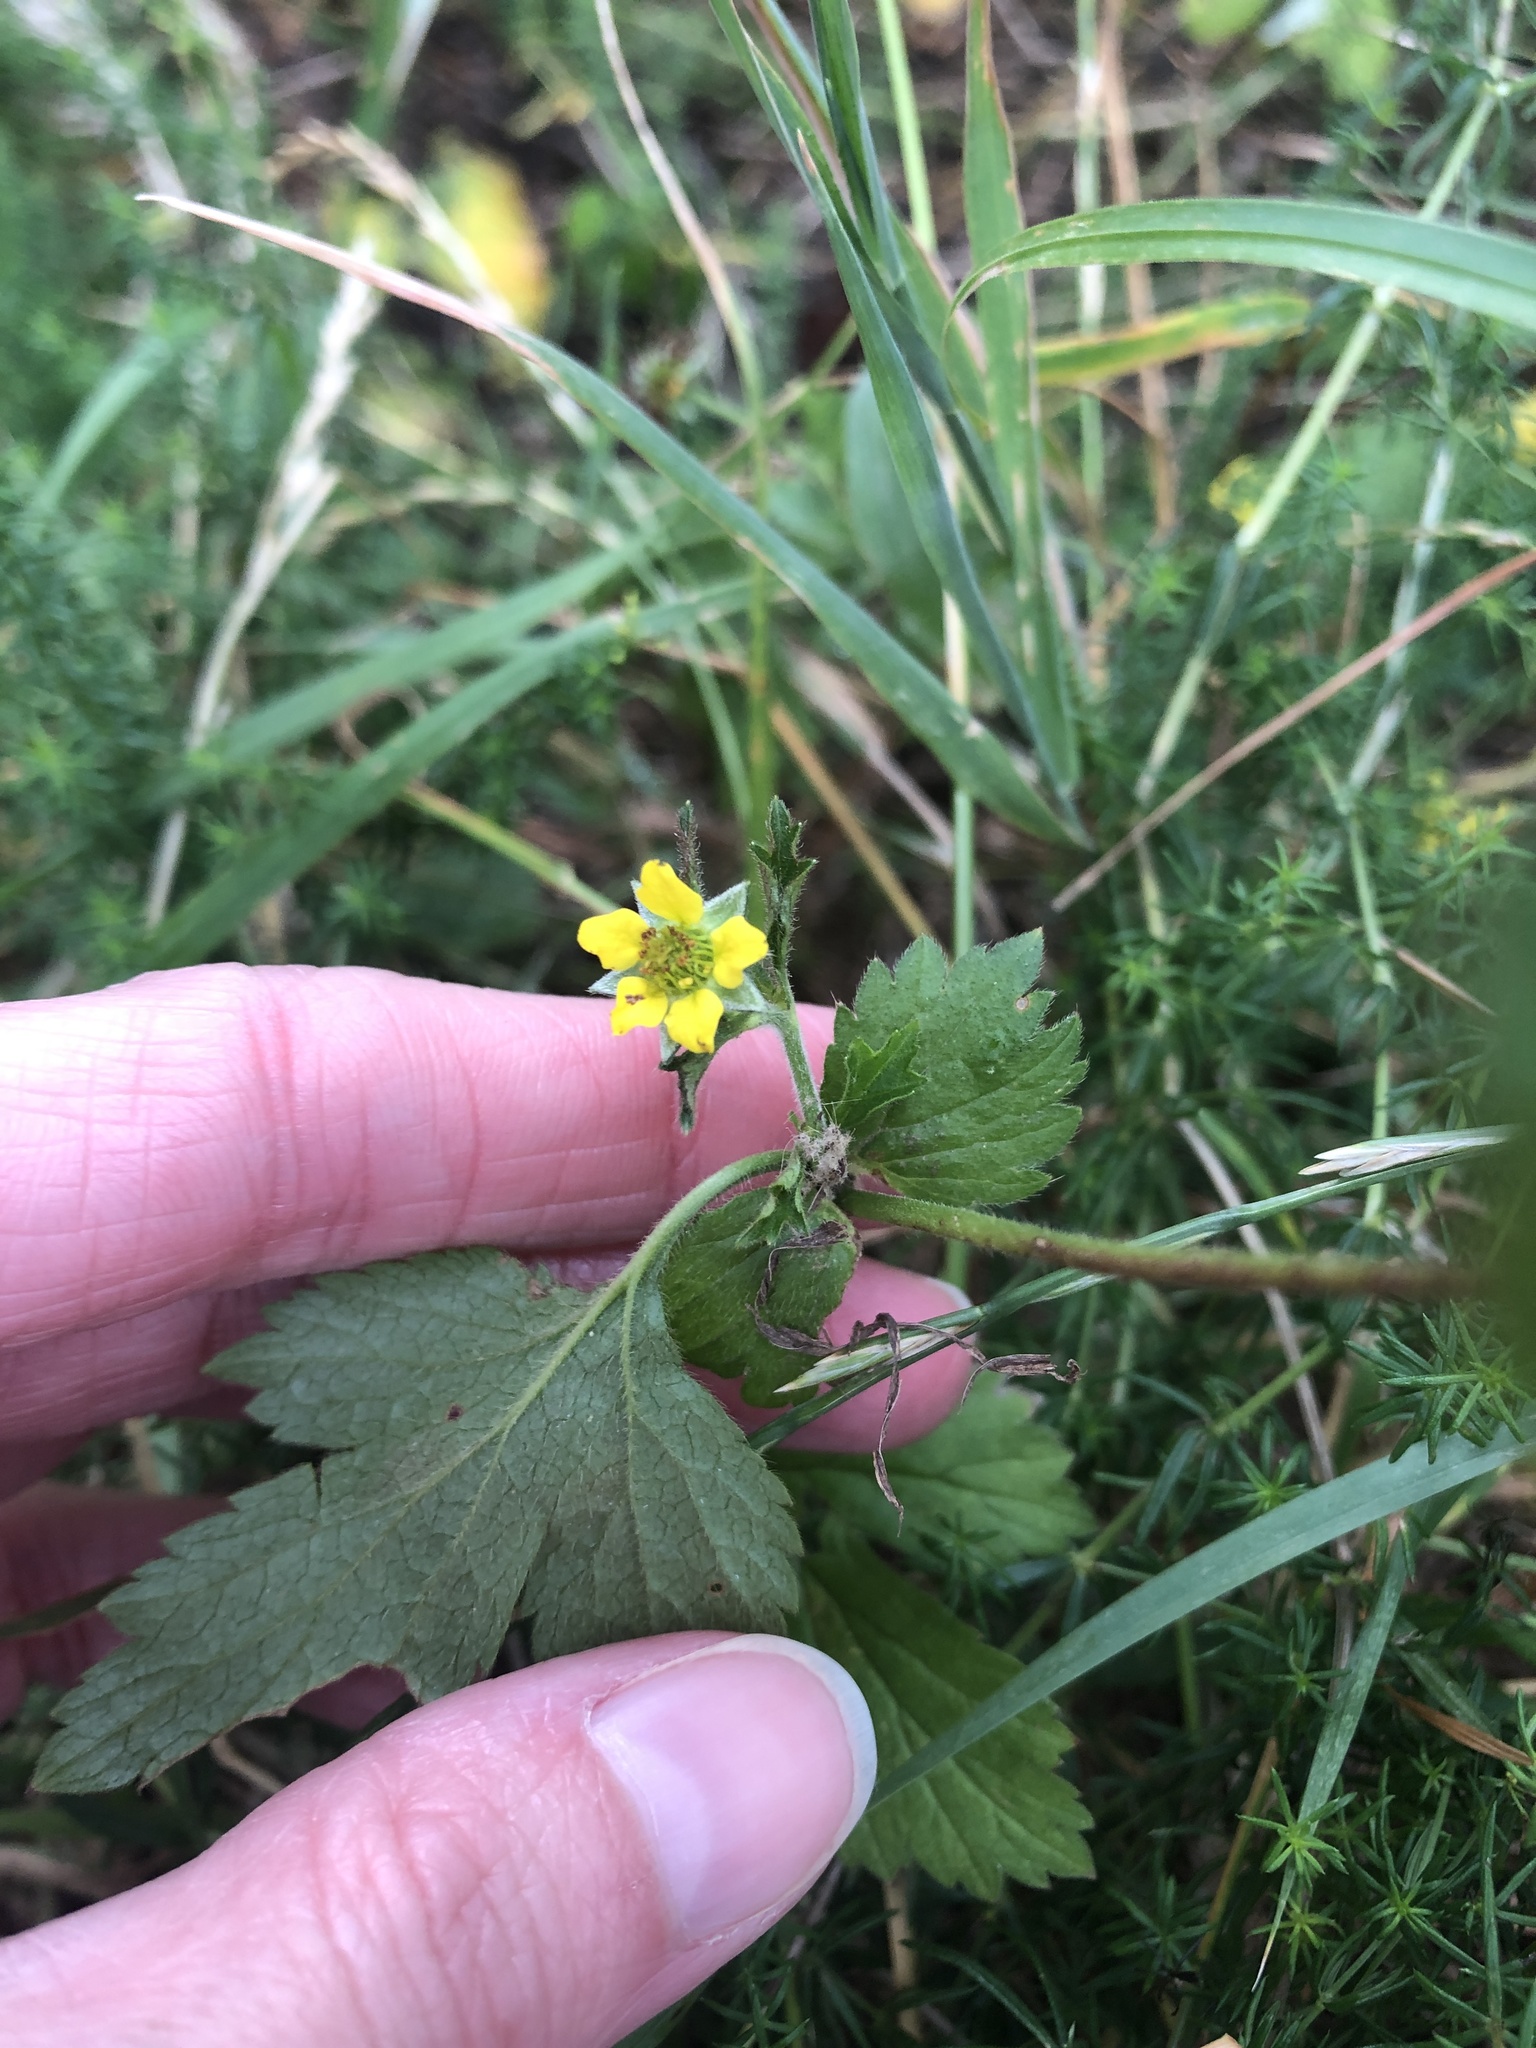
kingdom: Plantae
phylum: Tracheophyta
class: Magnoliopsida
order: Rosales
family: Rosaceae
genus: Geum
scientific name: Geum urbanum
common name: Wood avens
